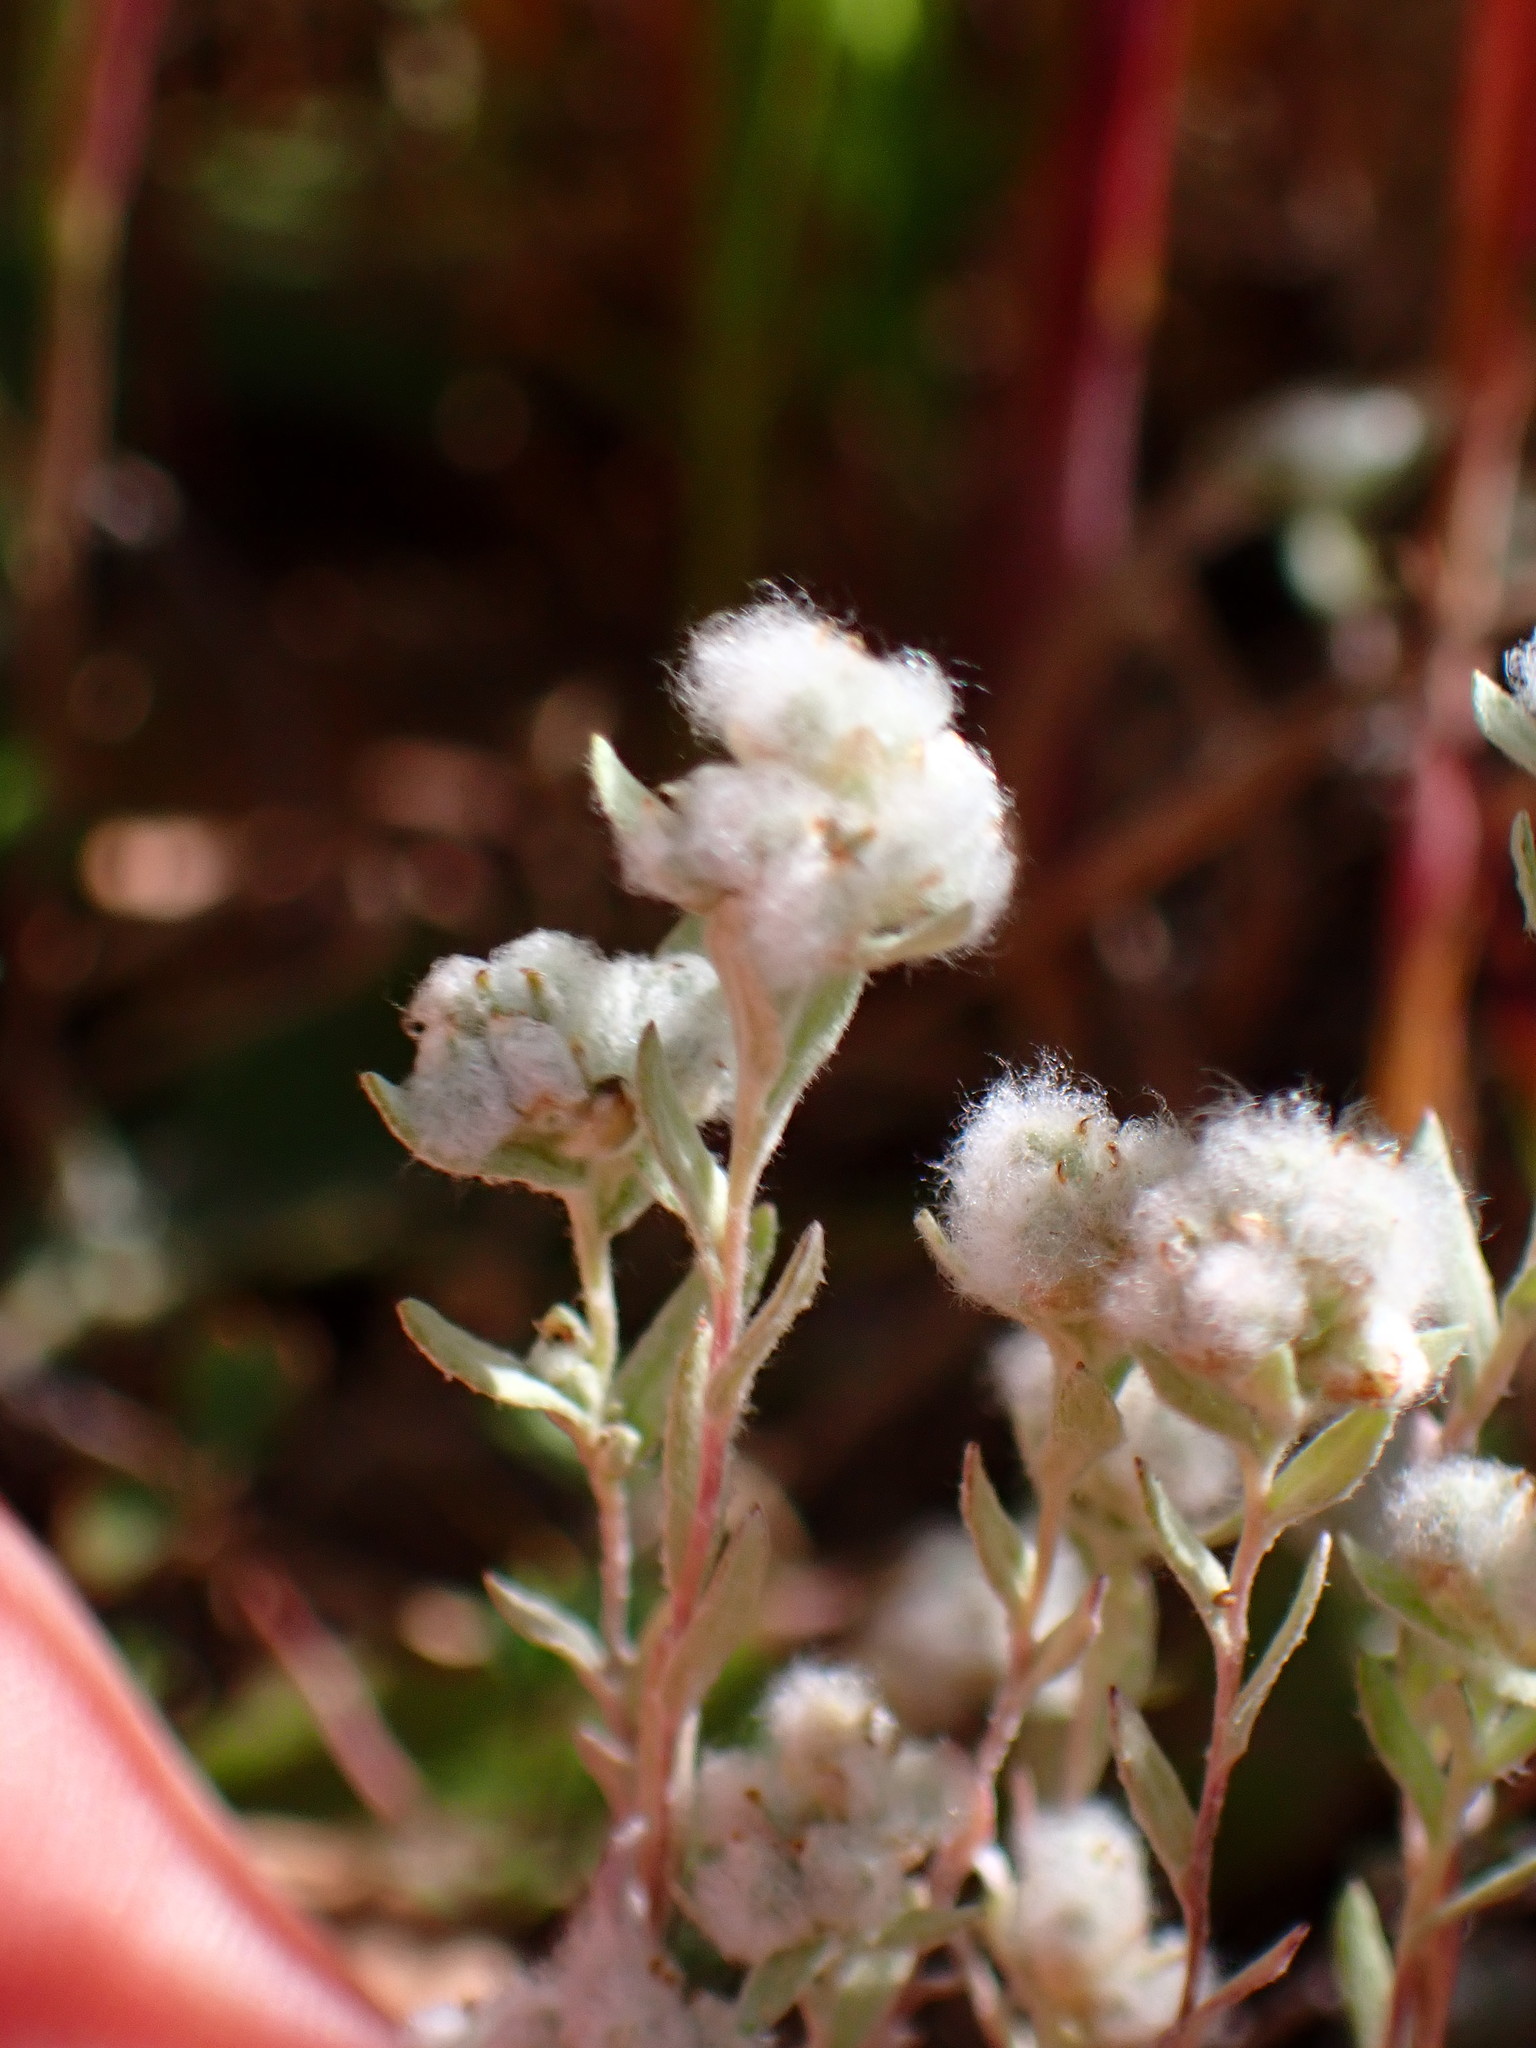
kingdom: Plantae
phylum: Tracheophyta
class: Magnoliopsida
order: Asterales
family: Asteraceae
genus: Bombycilaena
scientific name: Bombycilaena californica
